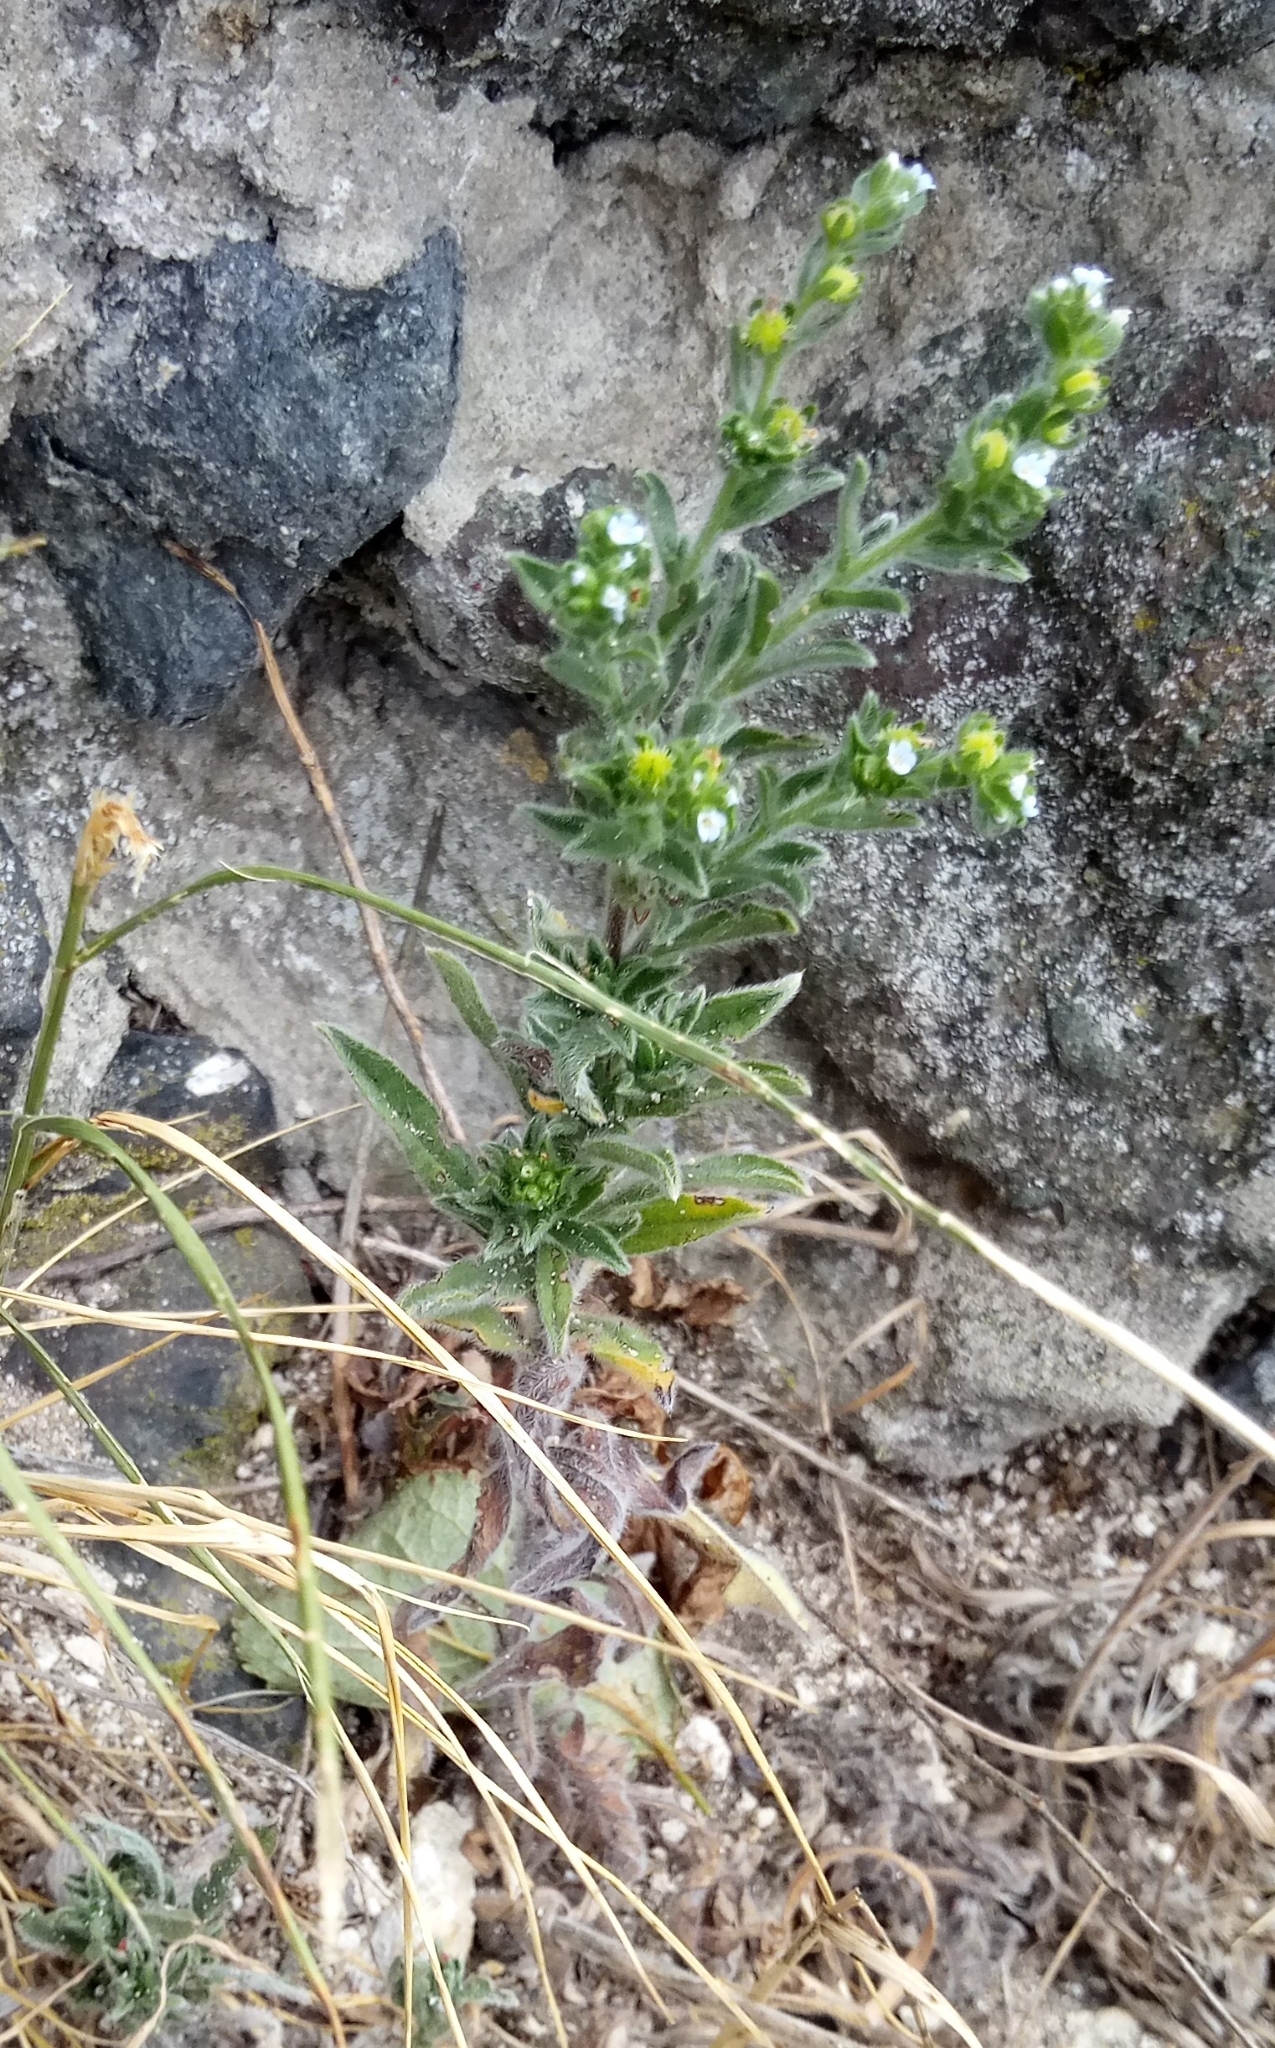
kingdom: Plantae
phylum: Tracheophyta
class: Magnoliopsida
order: Boraginales
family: Boraginaceae
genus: Lappula
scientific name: Lappula squarrosa
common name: European stickseed
